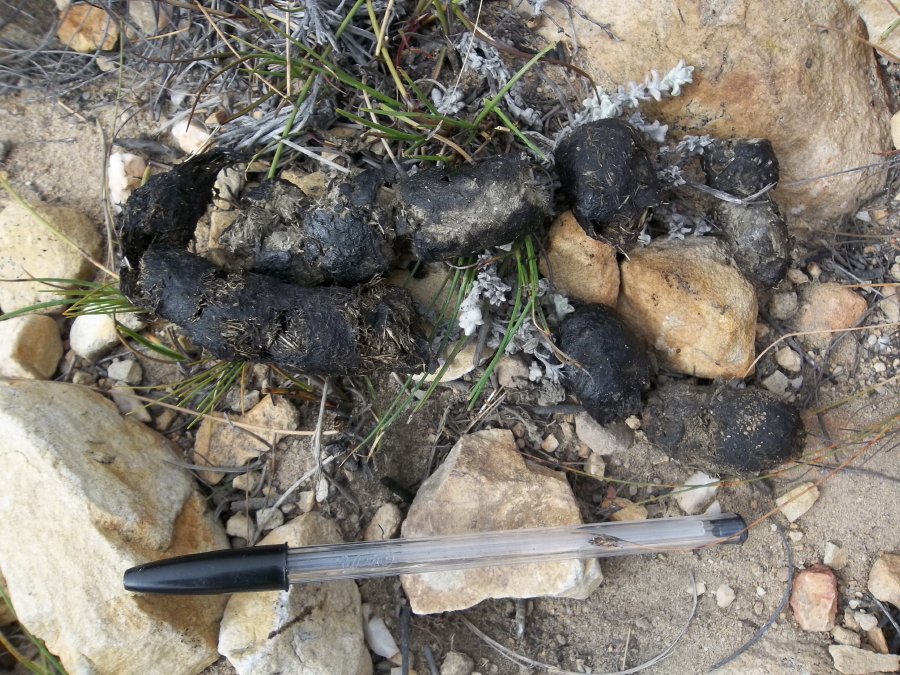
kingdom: Animalia
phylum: Chordata
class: Mammalia
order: Carnivora
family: Felidae
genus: Panthera
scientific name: Panthera pardus
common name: Leopard
